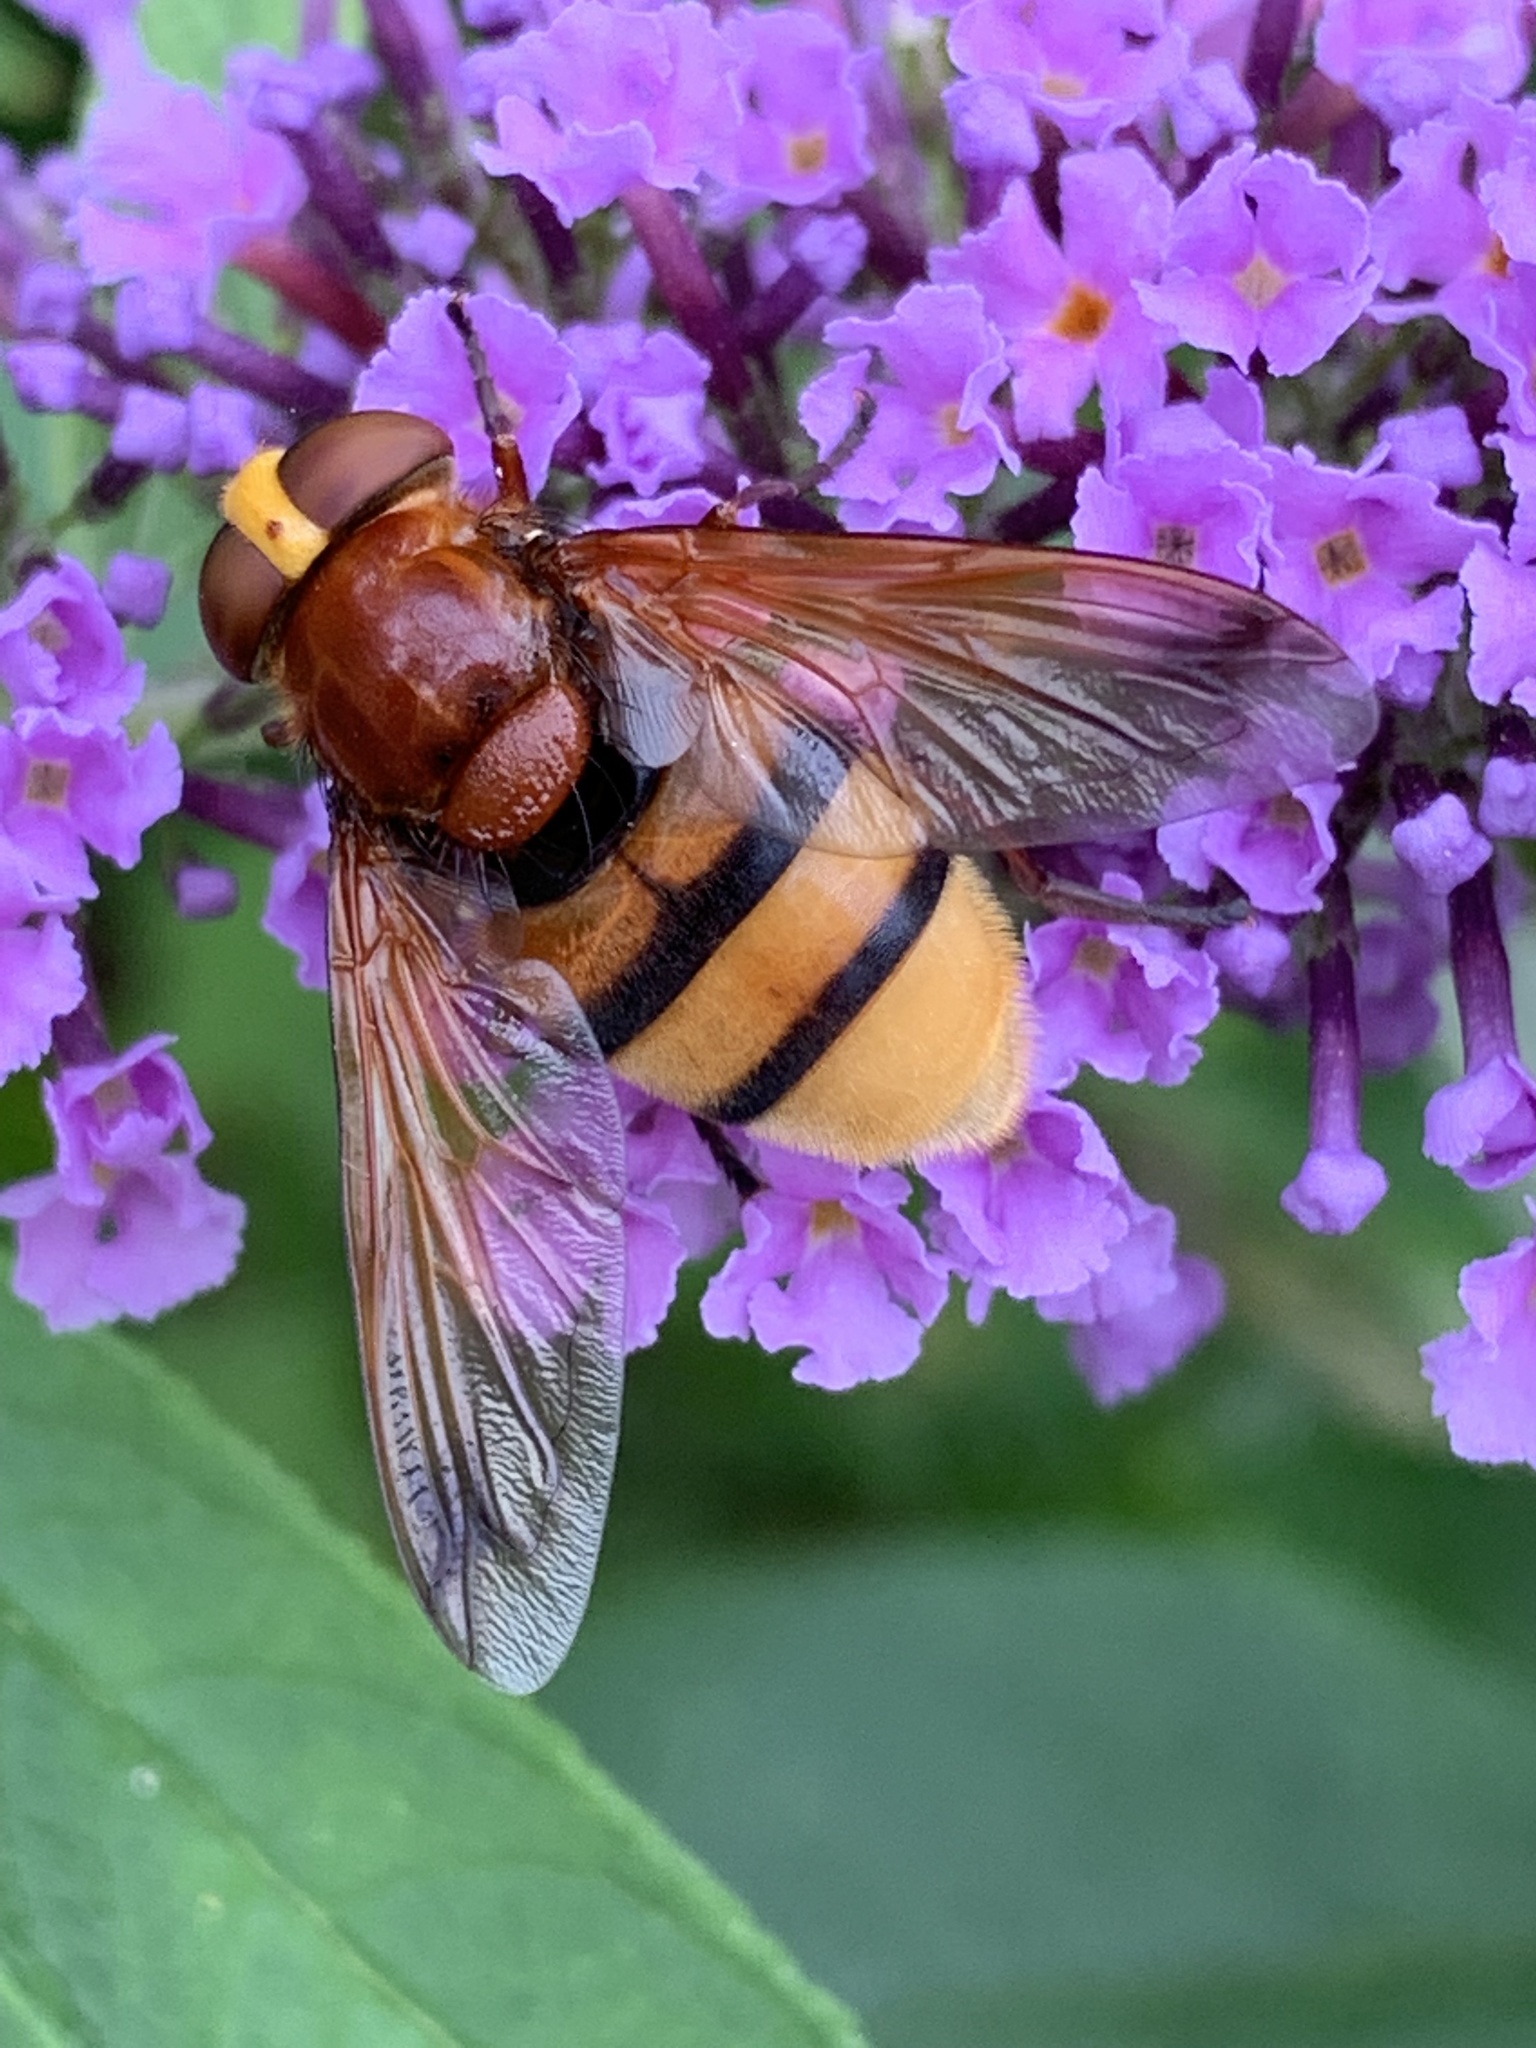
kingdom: Animalia
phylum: Arthropoda
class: Insecta
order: Diptera
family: Syrphidae
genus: Volucella
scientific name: Volucella zonaria
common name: Hornet hoverfly
